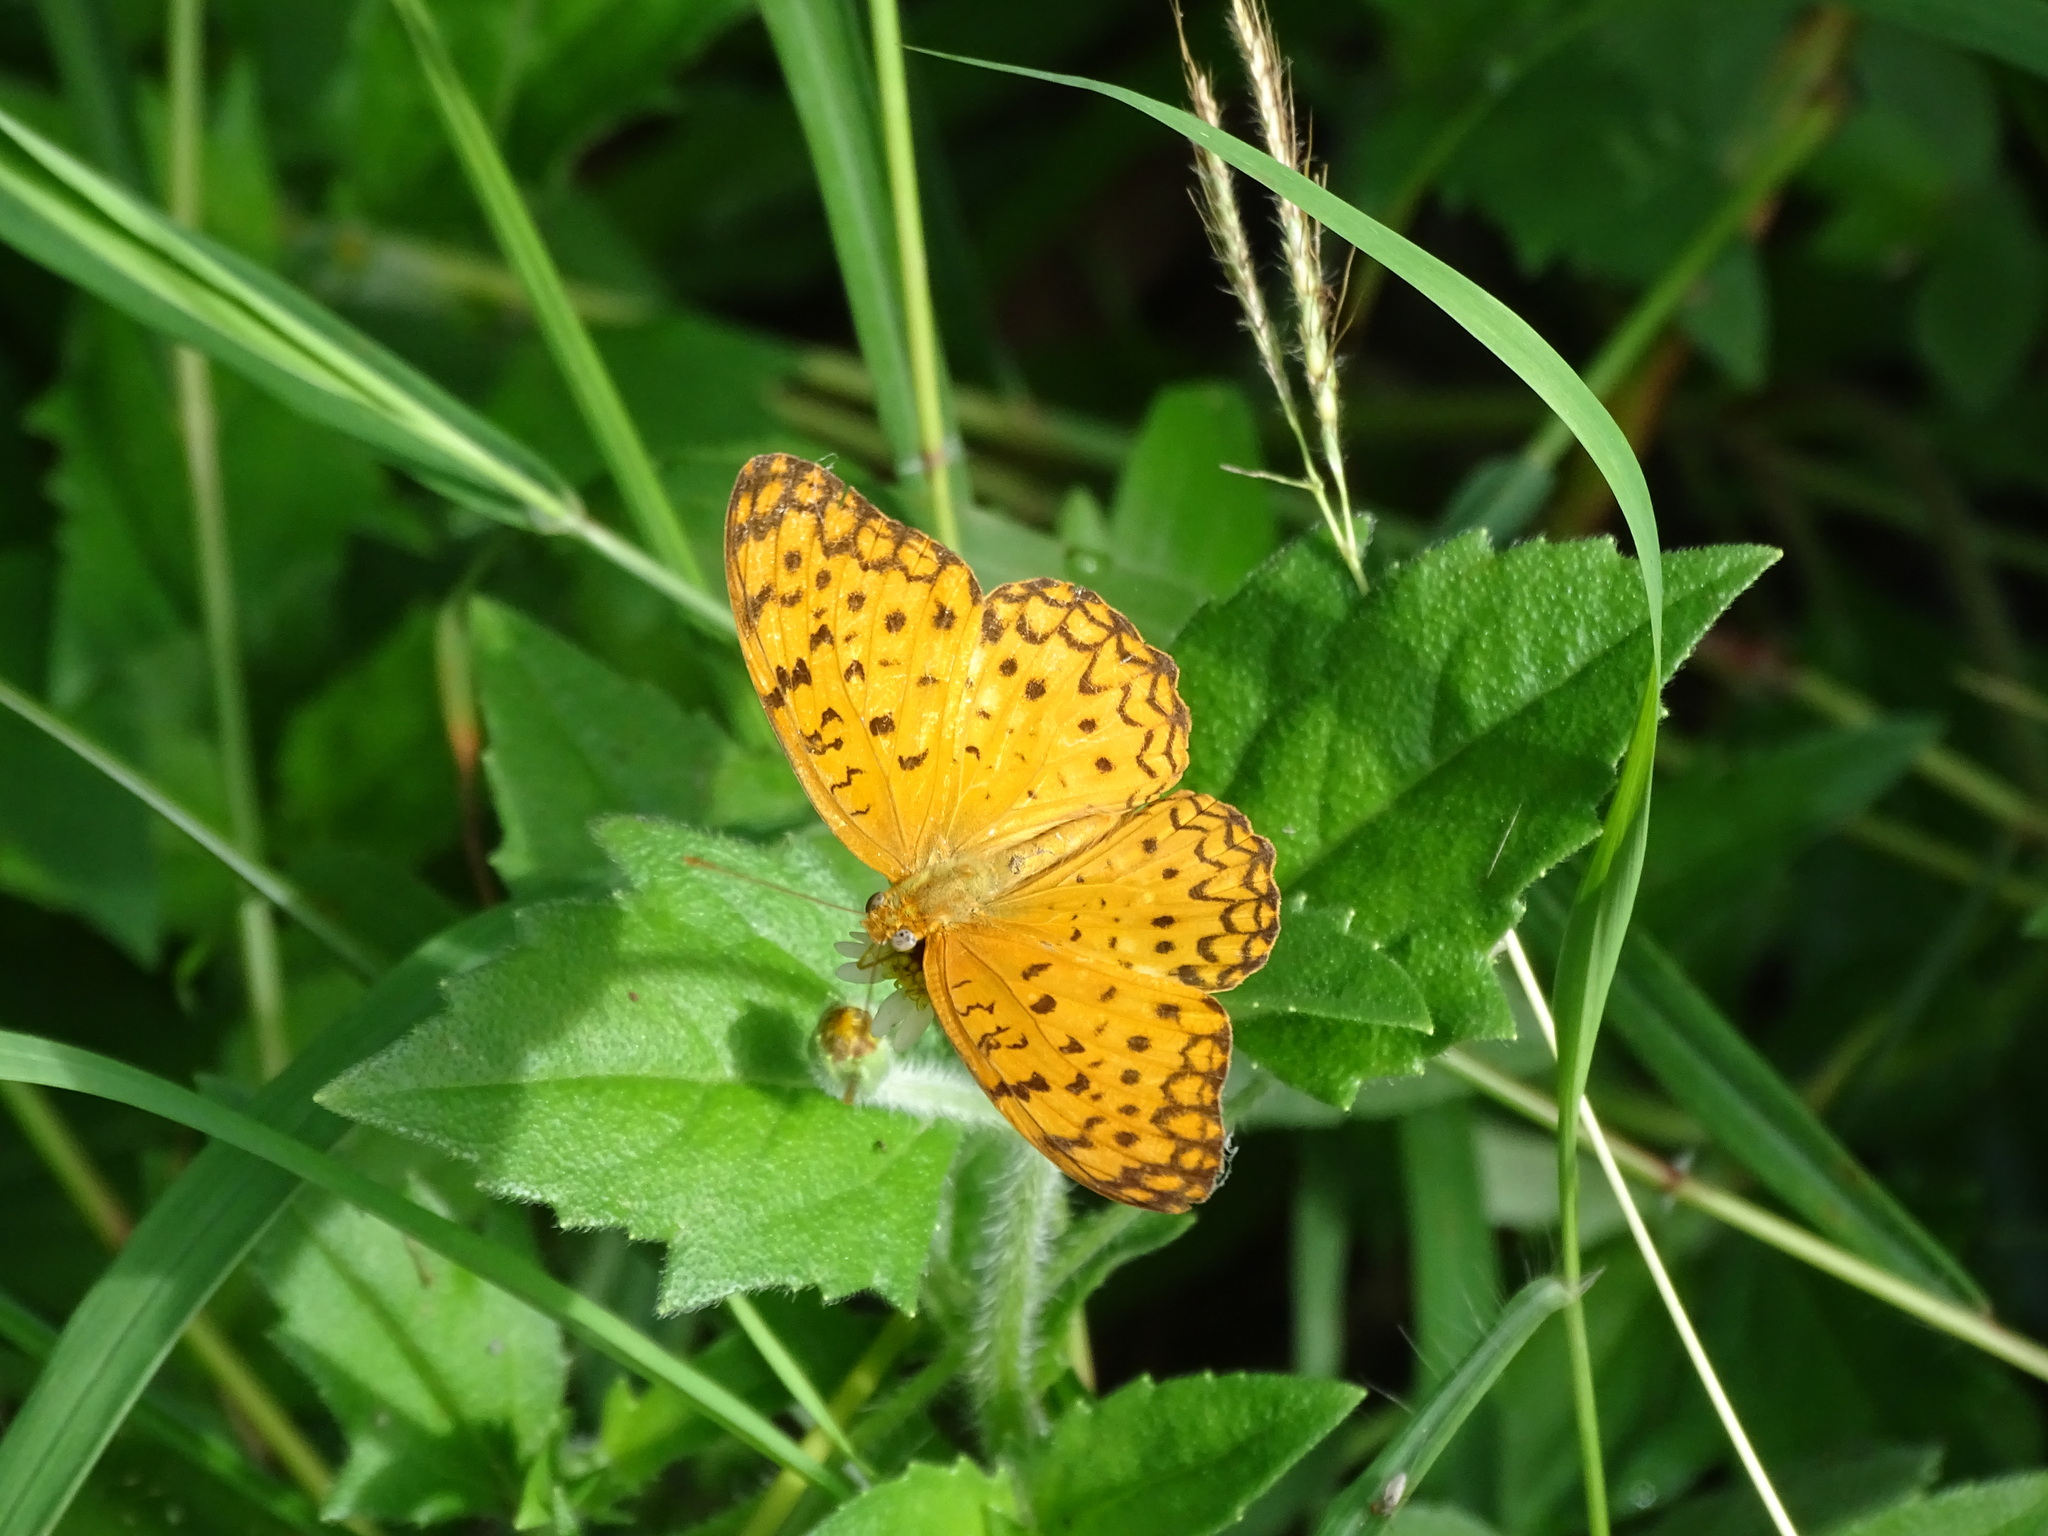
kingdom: Animalia
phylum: Arthropoda
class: Insecta
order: Lepidoptera
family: Nymphalidae
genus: Phalanta
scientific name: Phalanta phalantha
